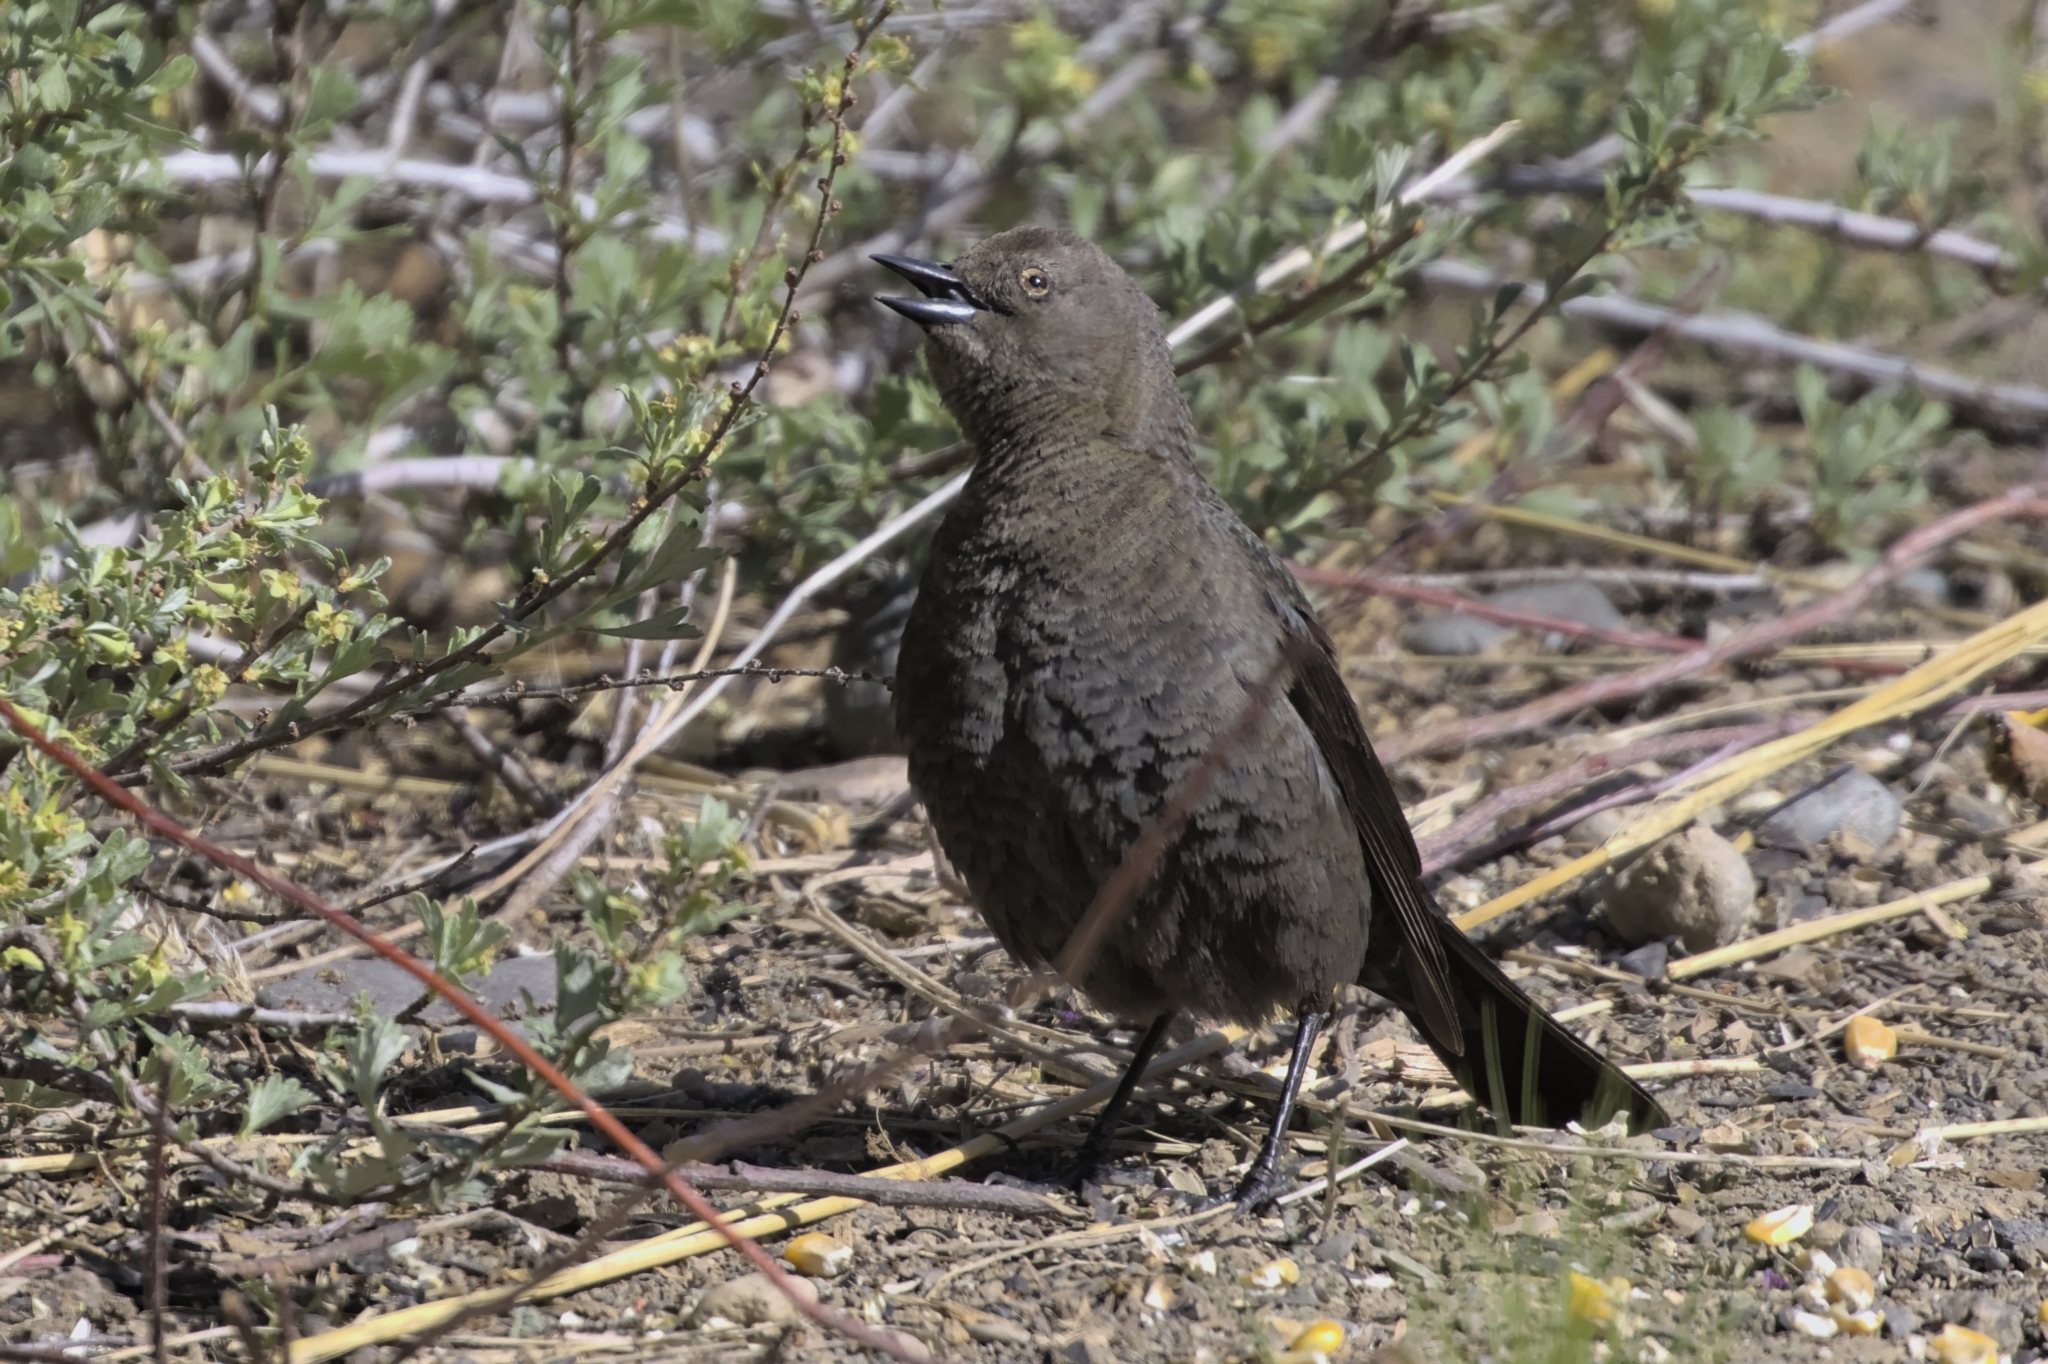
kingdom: Animalia
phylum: Chordata
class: Aves
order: Passeriformes
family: Icteridae
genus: Euphagus
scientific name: Euphagus cyanocephalus
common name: Brewer's blackbird
